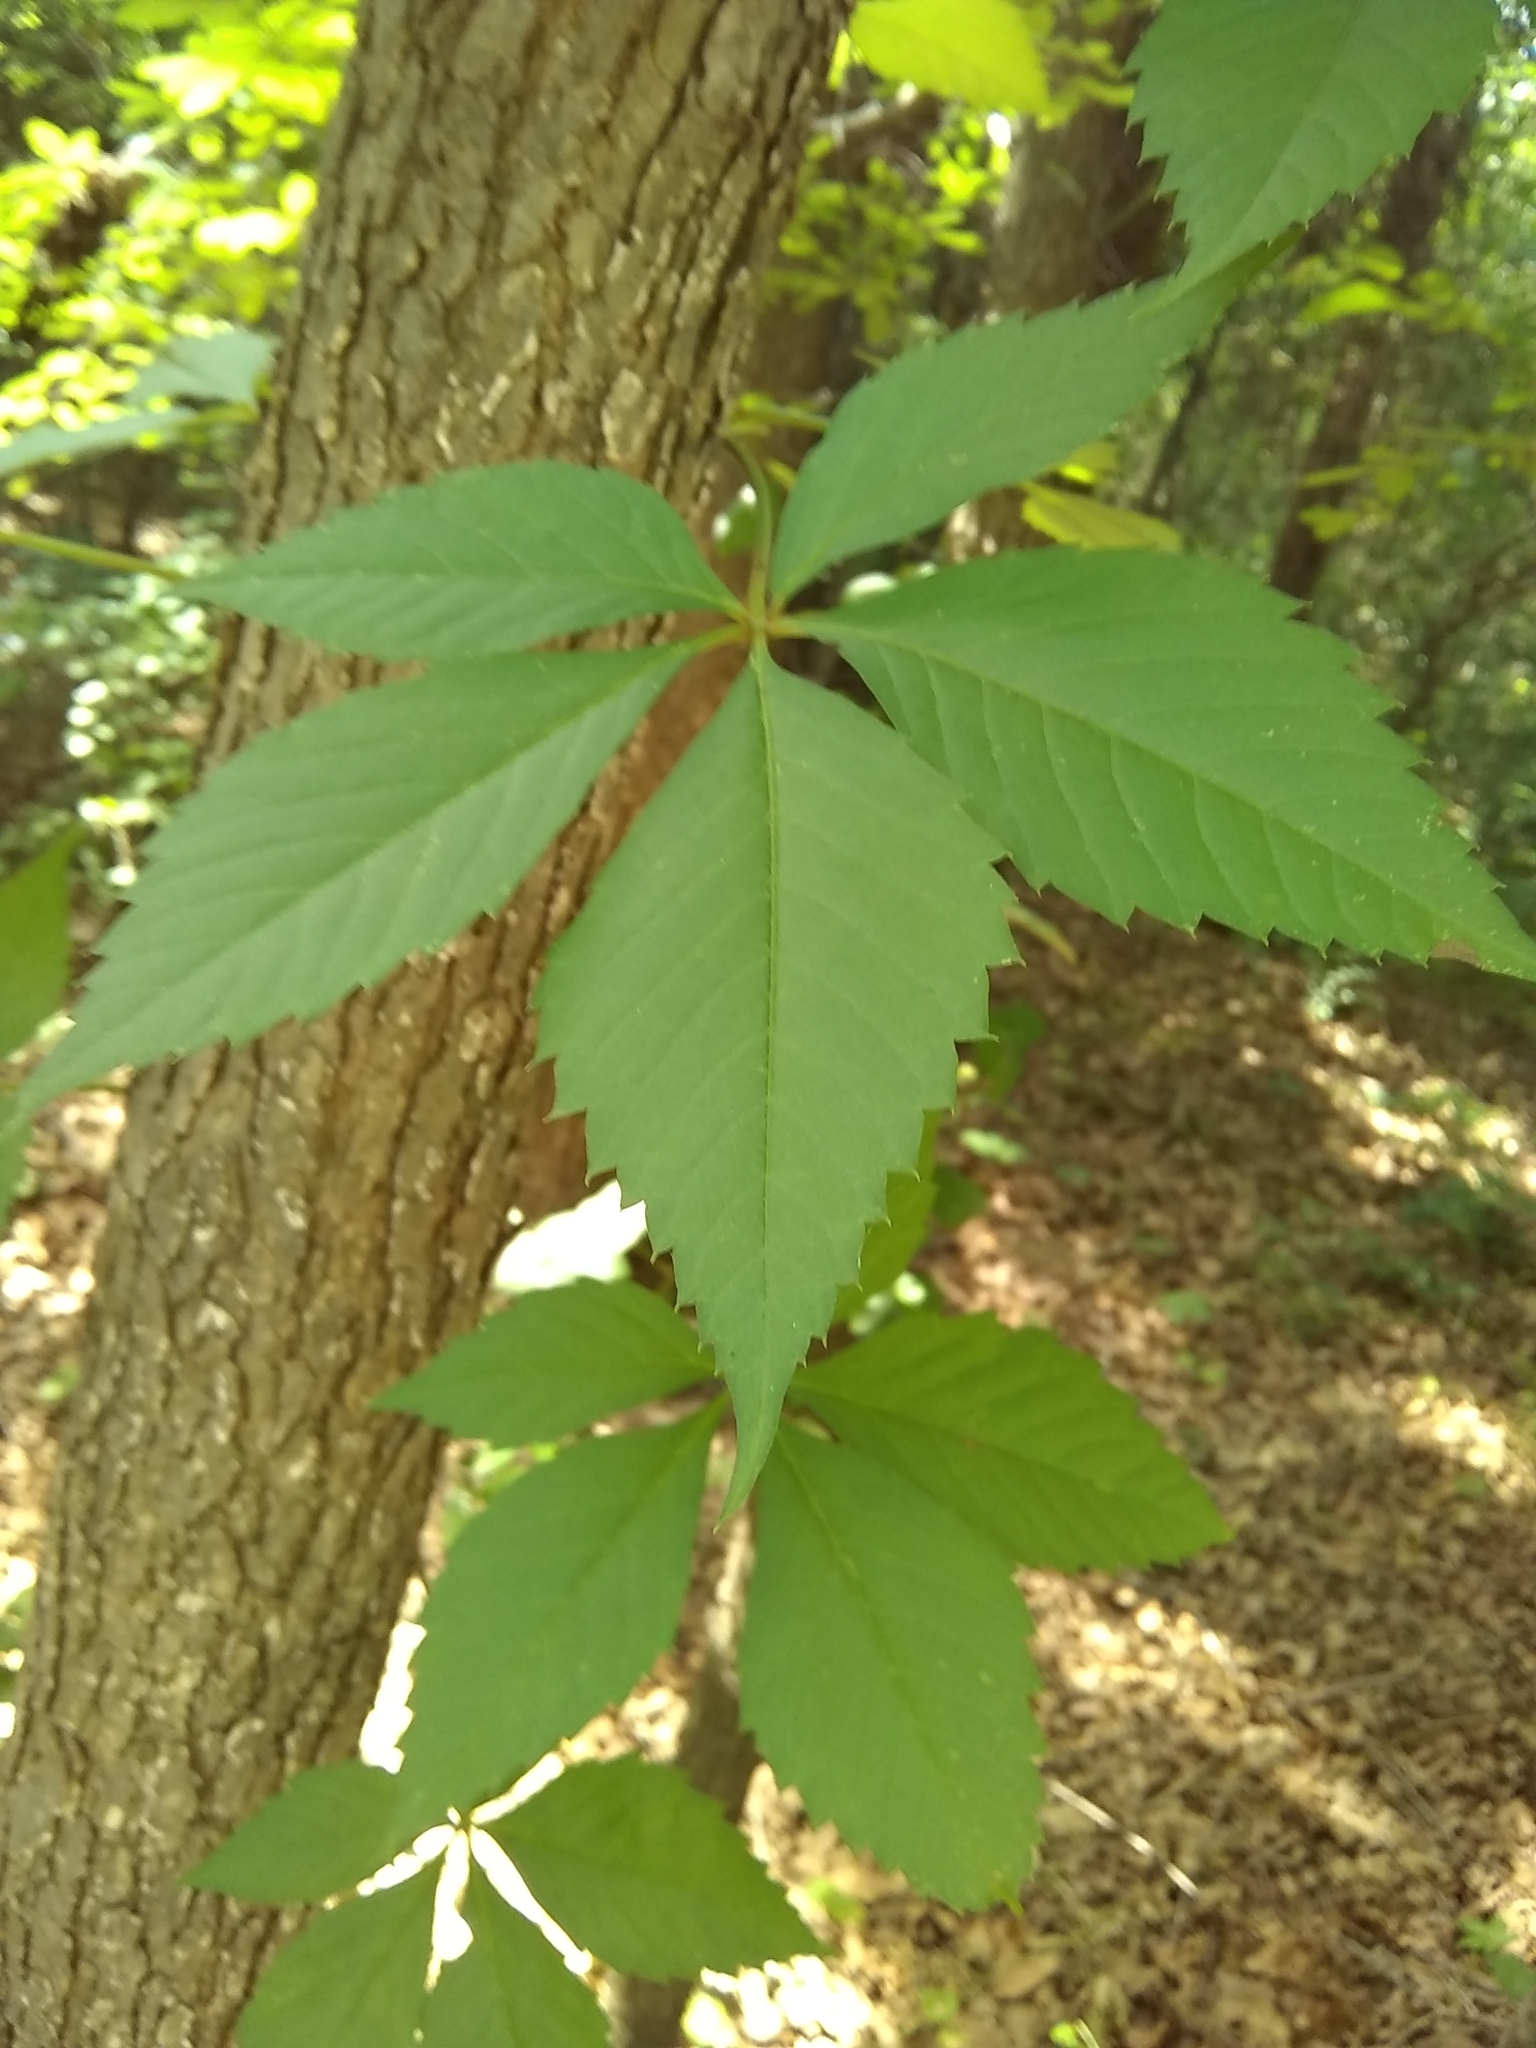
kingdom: Plantae
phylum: Tracheophyta
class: Magnoliopsida
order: Vitales
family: Vitaceae
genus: Parthenocissus
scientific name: Parthenocissus quinquefolia
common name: Virginia-creeper
